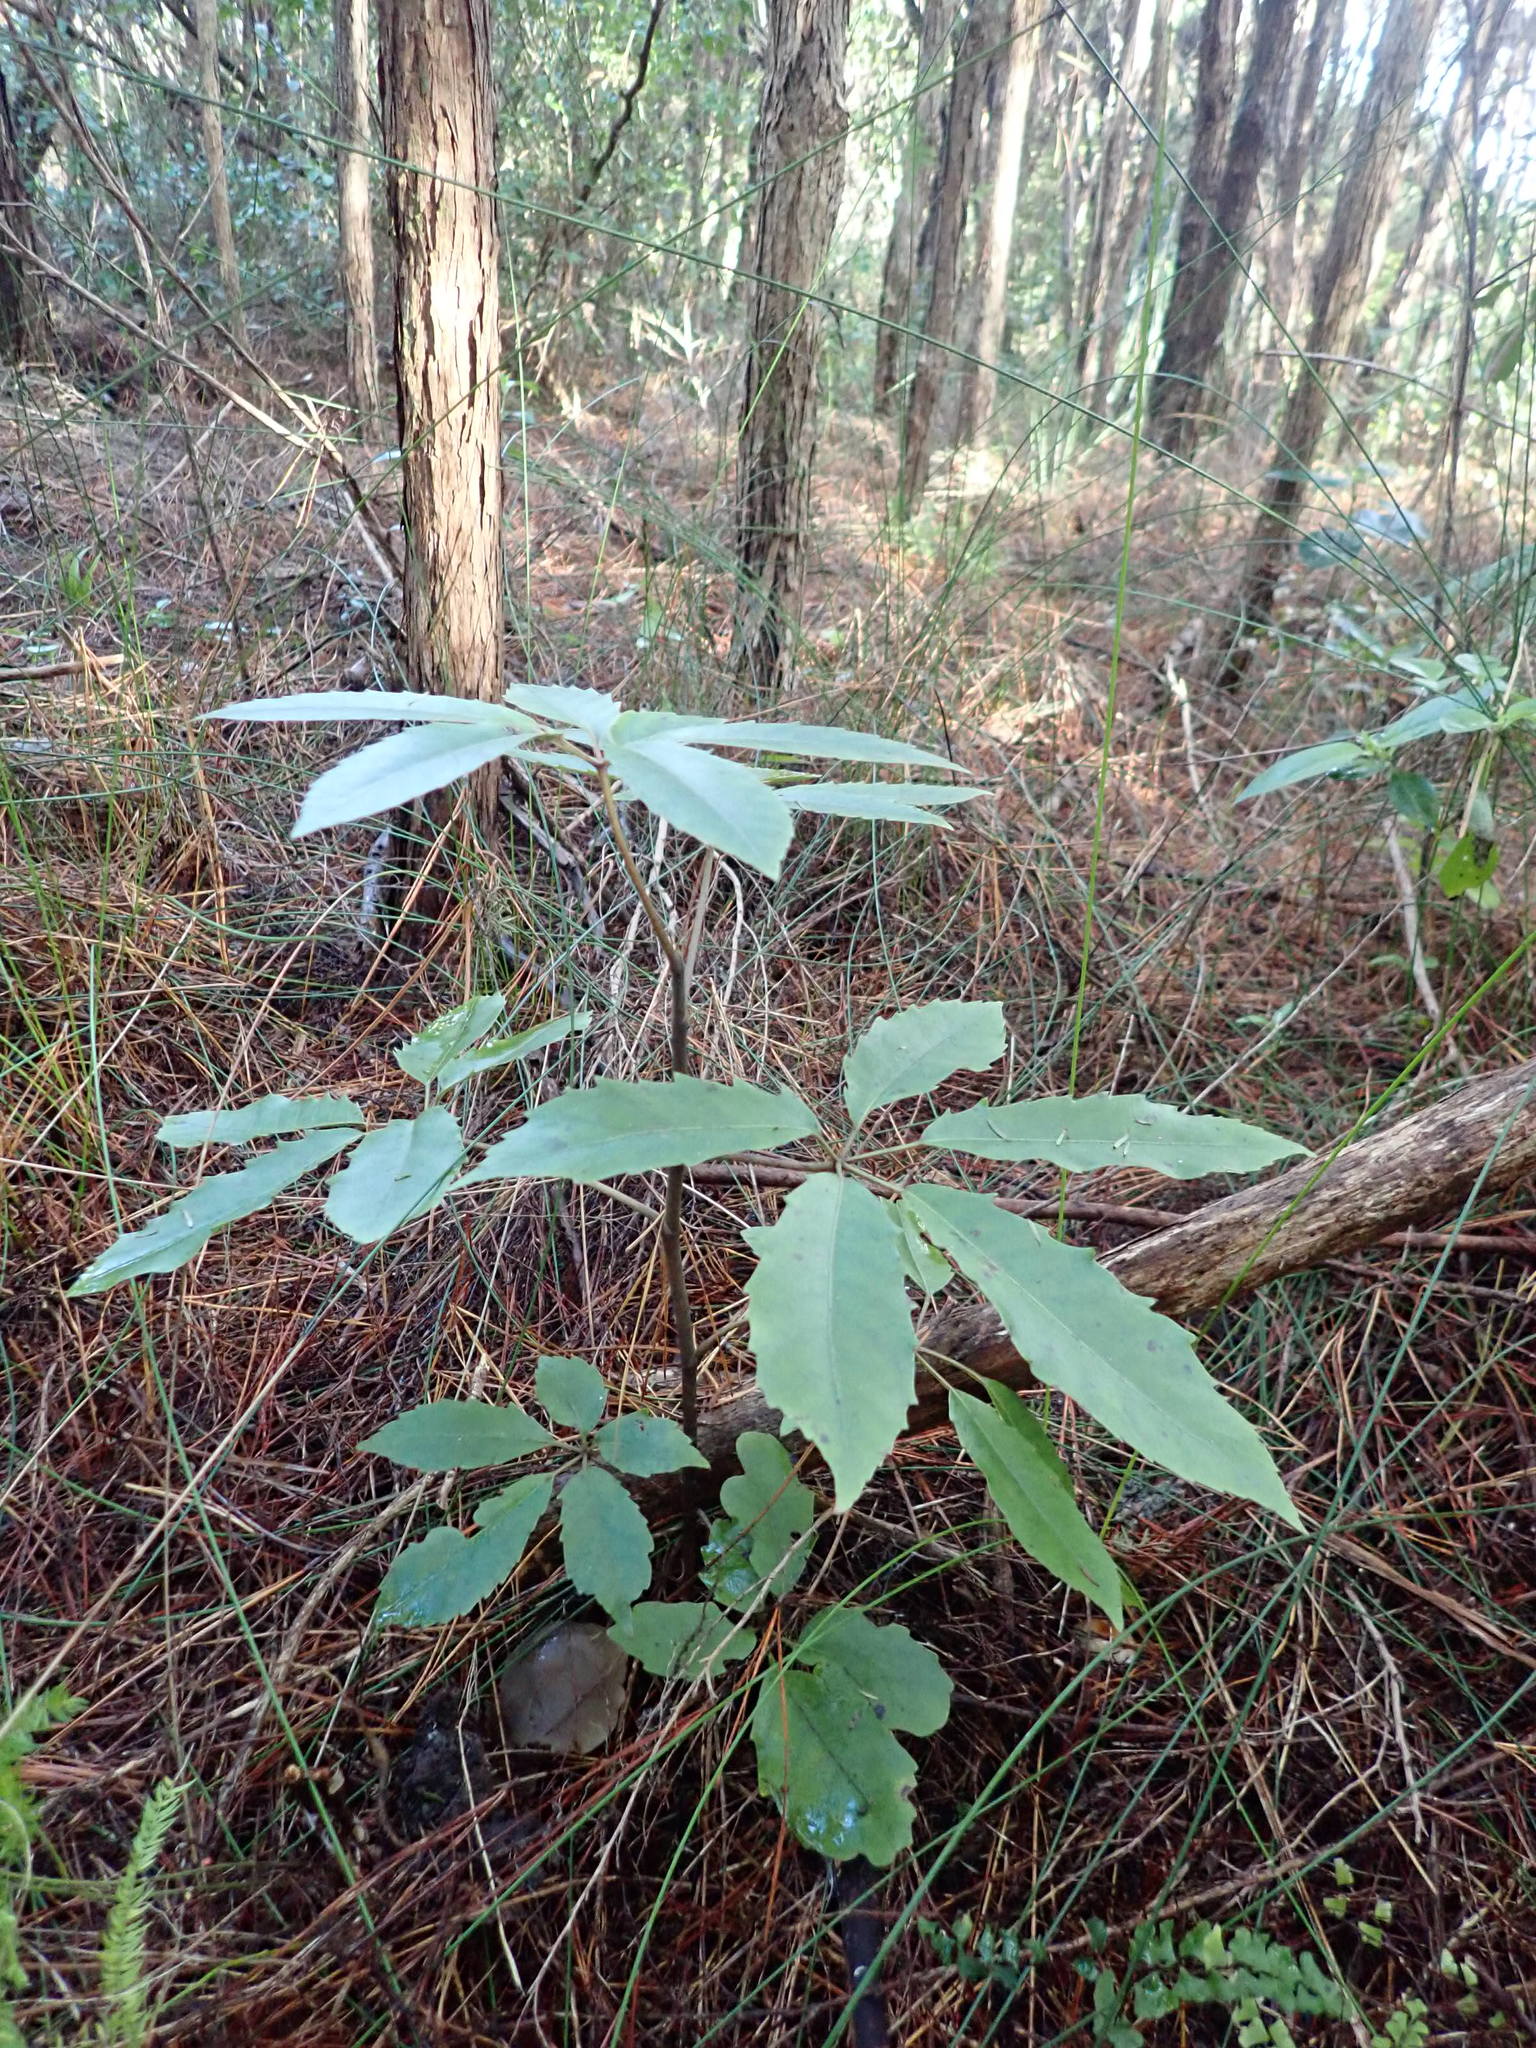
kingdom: Plantae
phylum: Tracheophyta
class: Magnoliopsida
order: Apiales
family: Araliaceae
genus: Neopanax
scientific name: Neopanax arboreus
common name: Five-fingers
